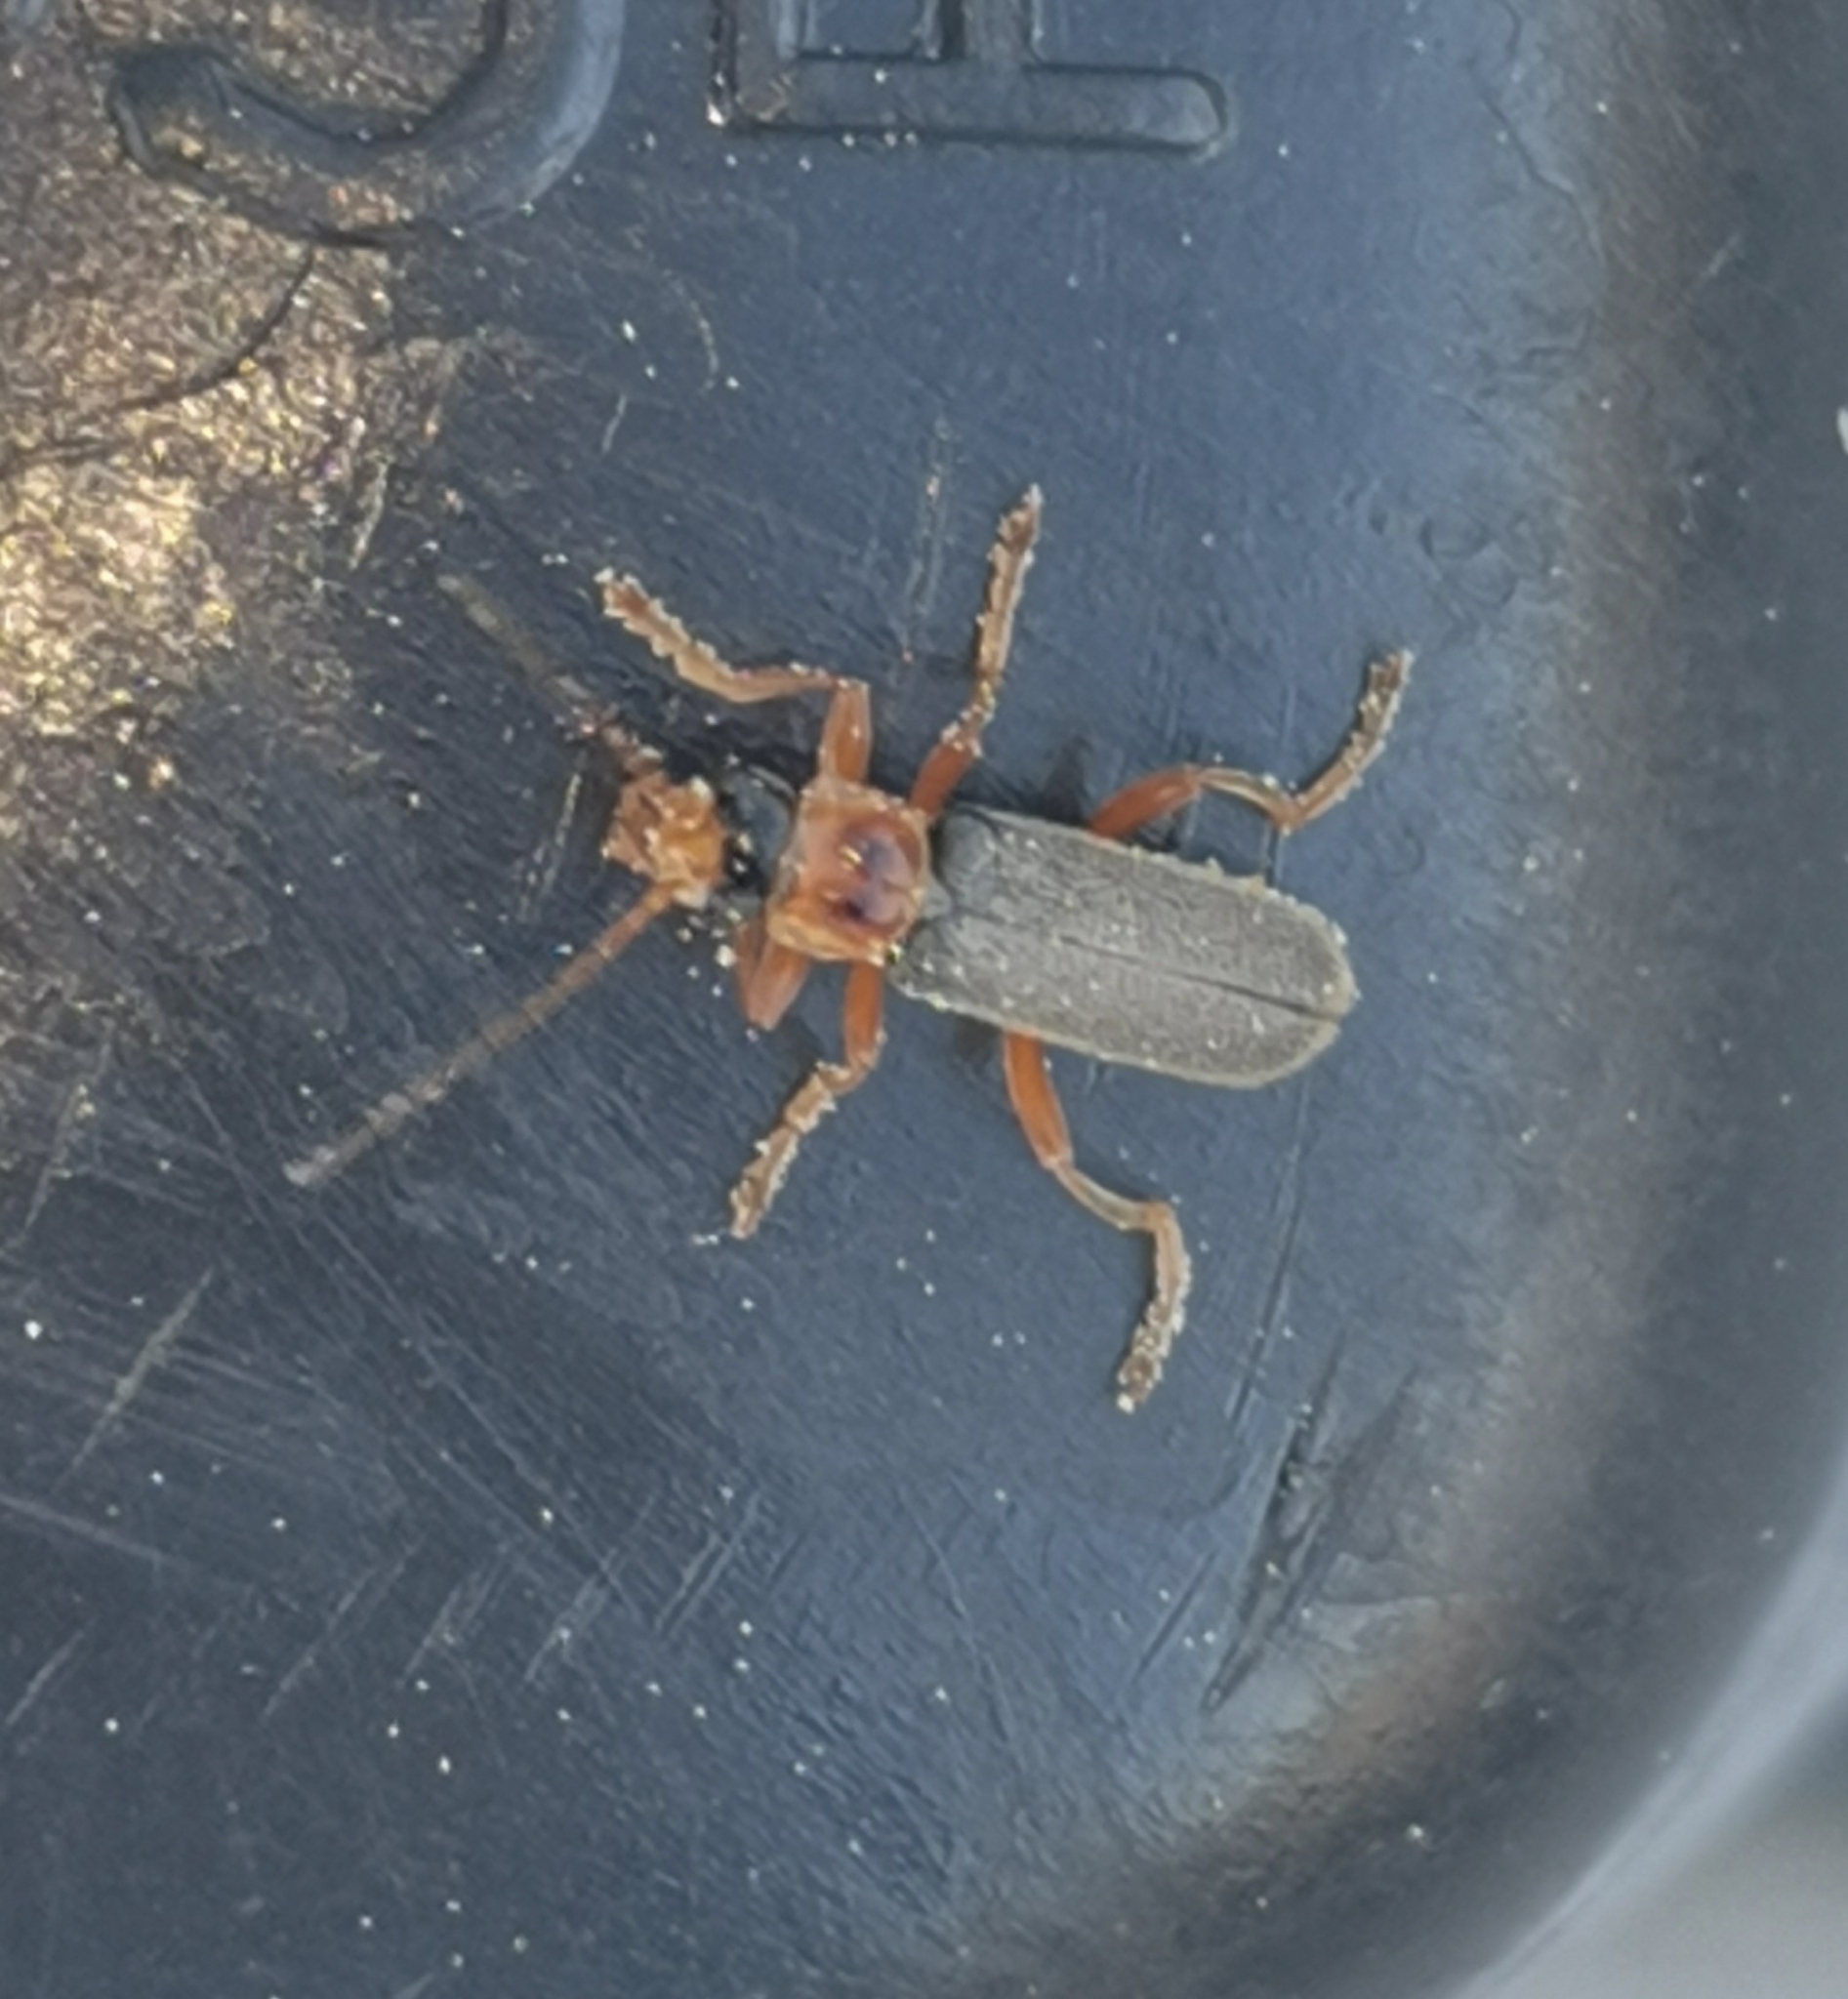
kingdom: Animalia
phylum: Arthropoda
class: Insecta
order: Coleoptera
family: Cantharidae
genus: Cantharis
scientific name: Cantharis lateralis
